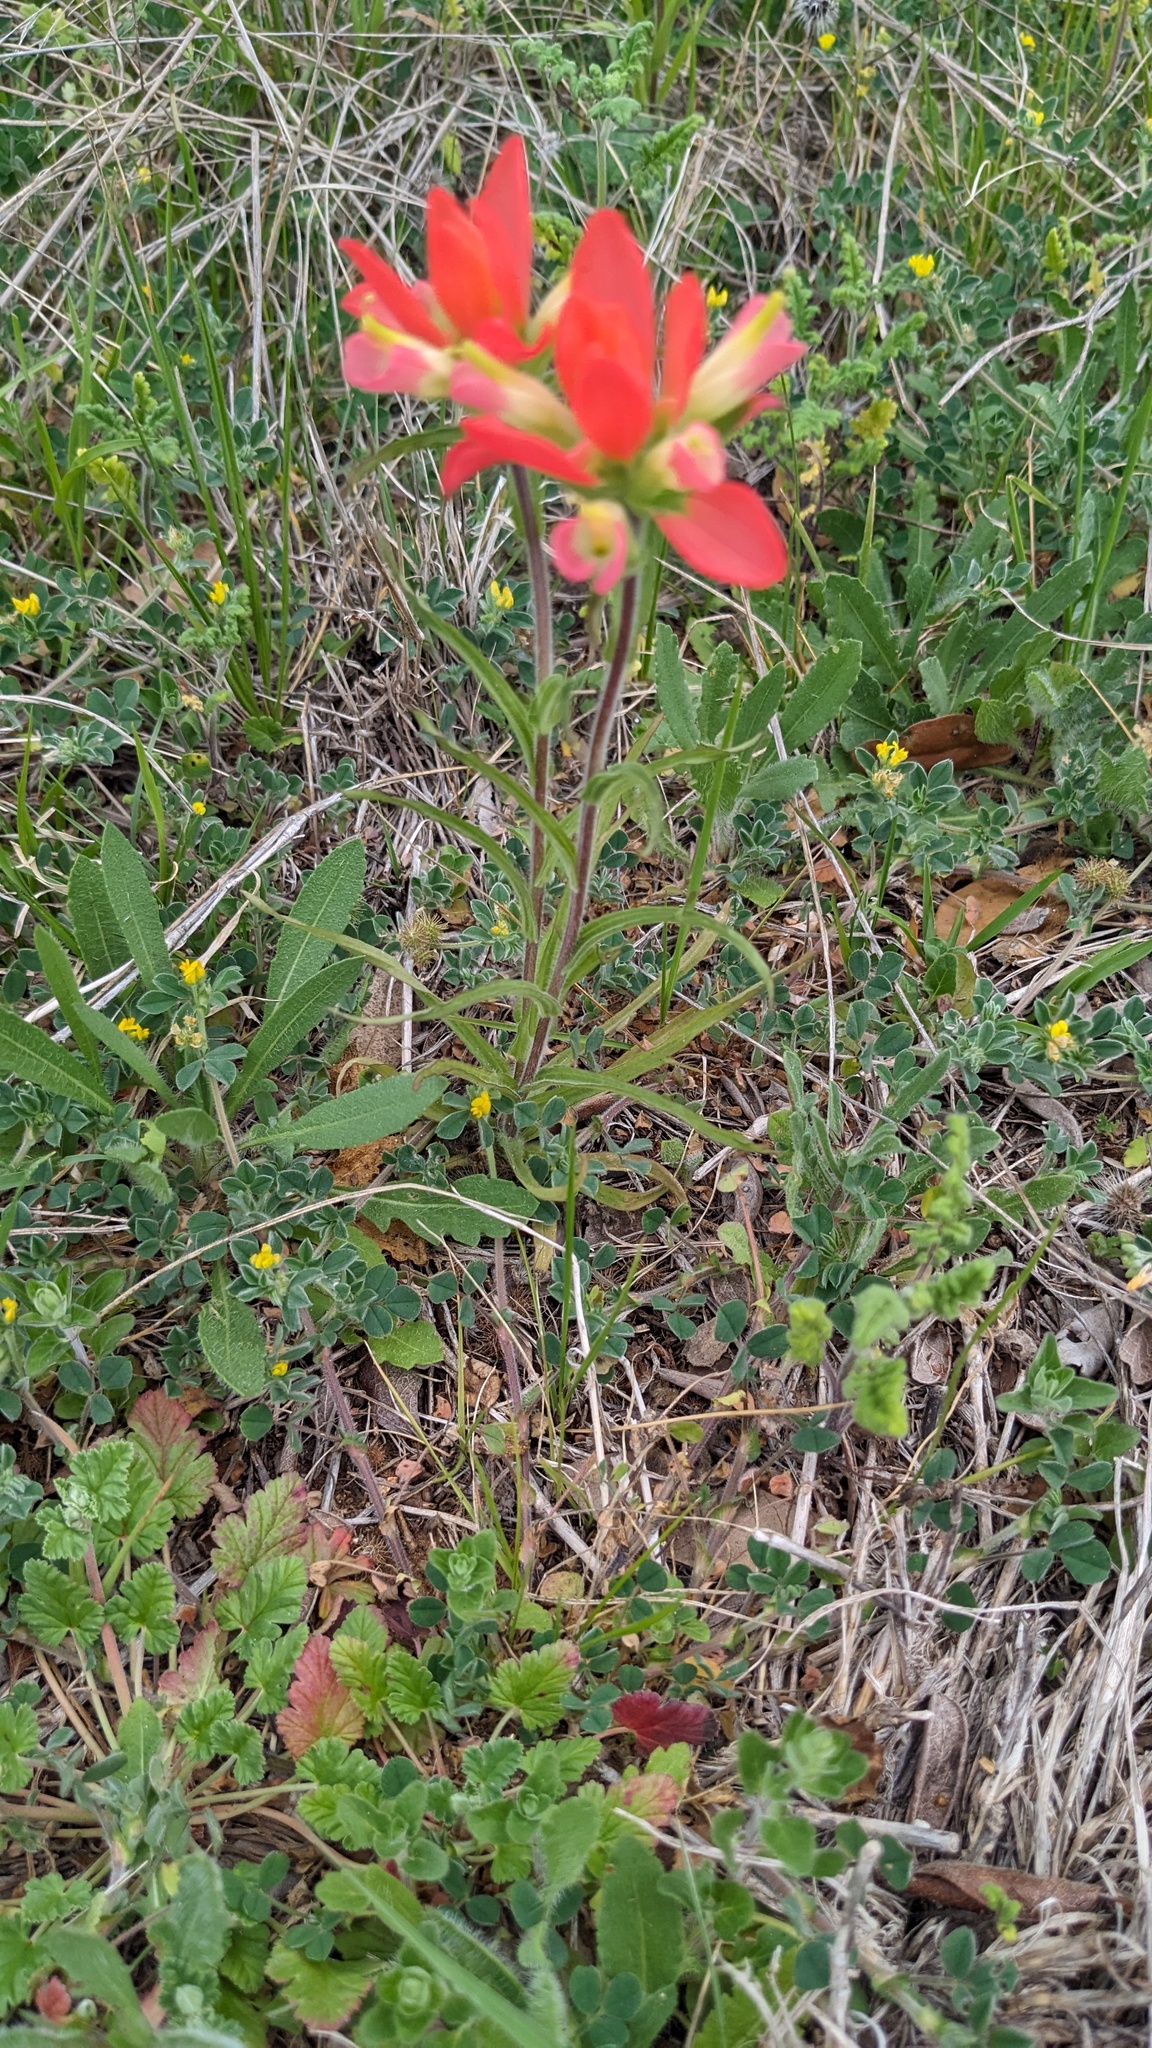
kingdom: Plantae
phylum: Tracheophyta
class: Magnoliopsida
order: Lamiales
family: Orobanchaceae
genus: Castilleja
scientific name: Castilleja indivisa
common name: Texas paintbrush
